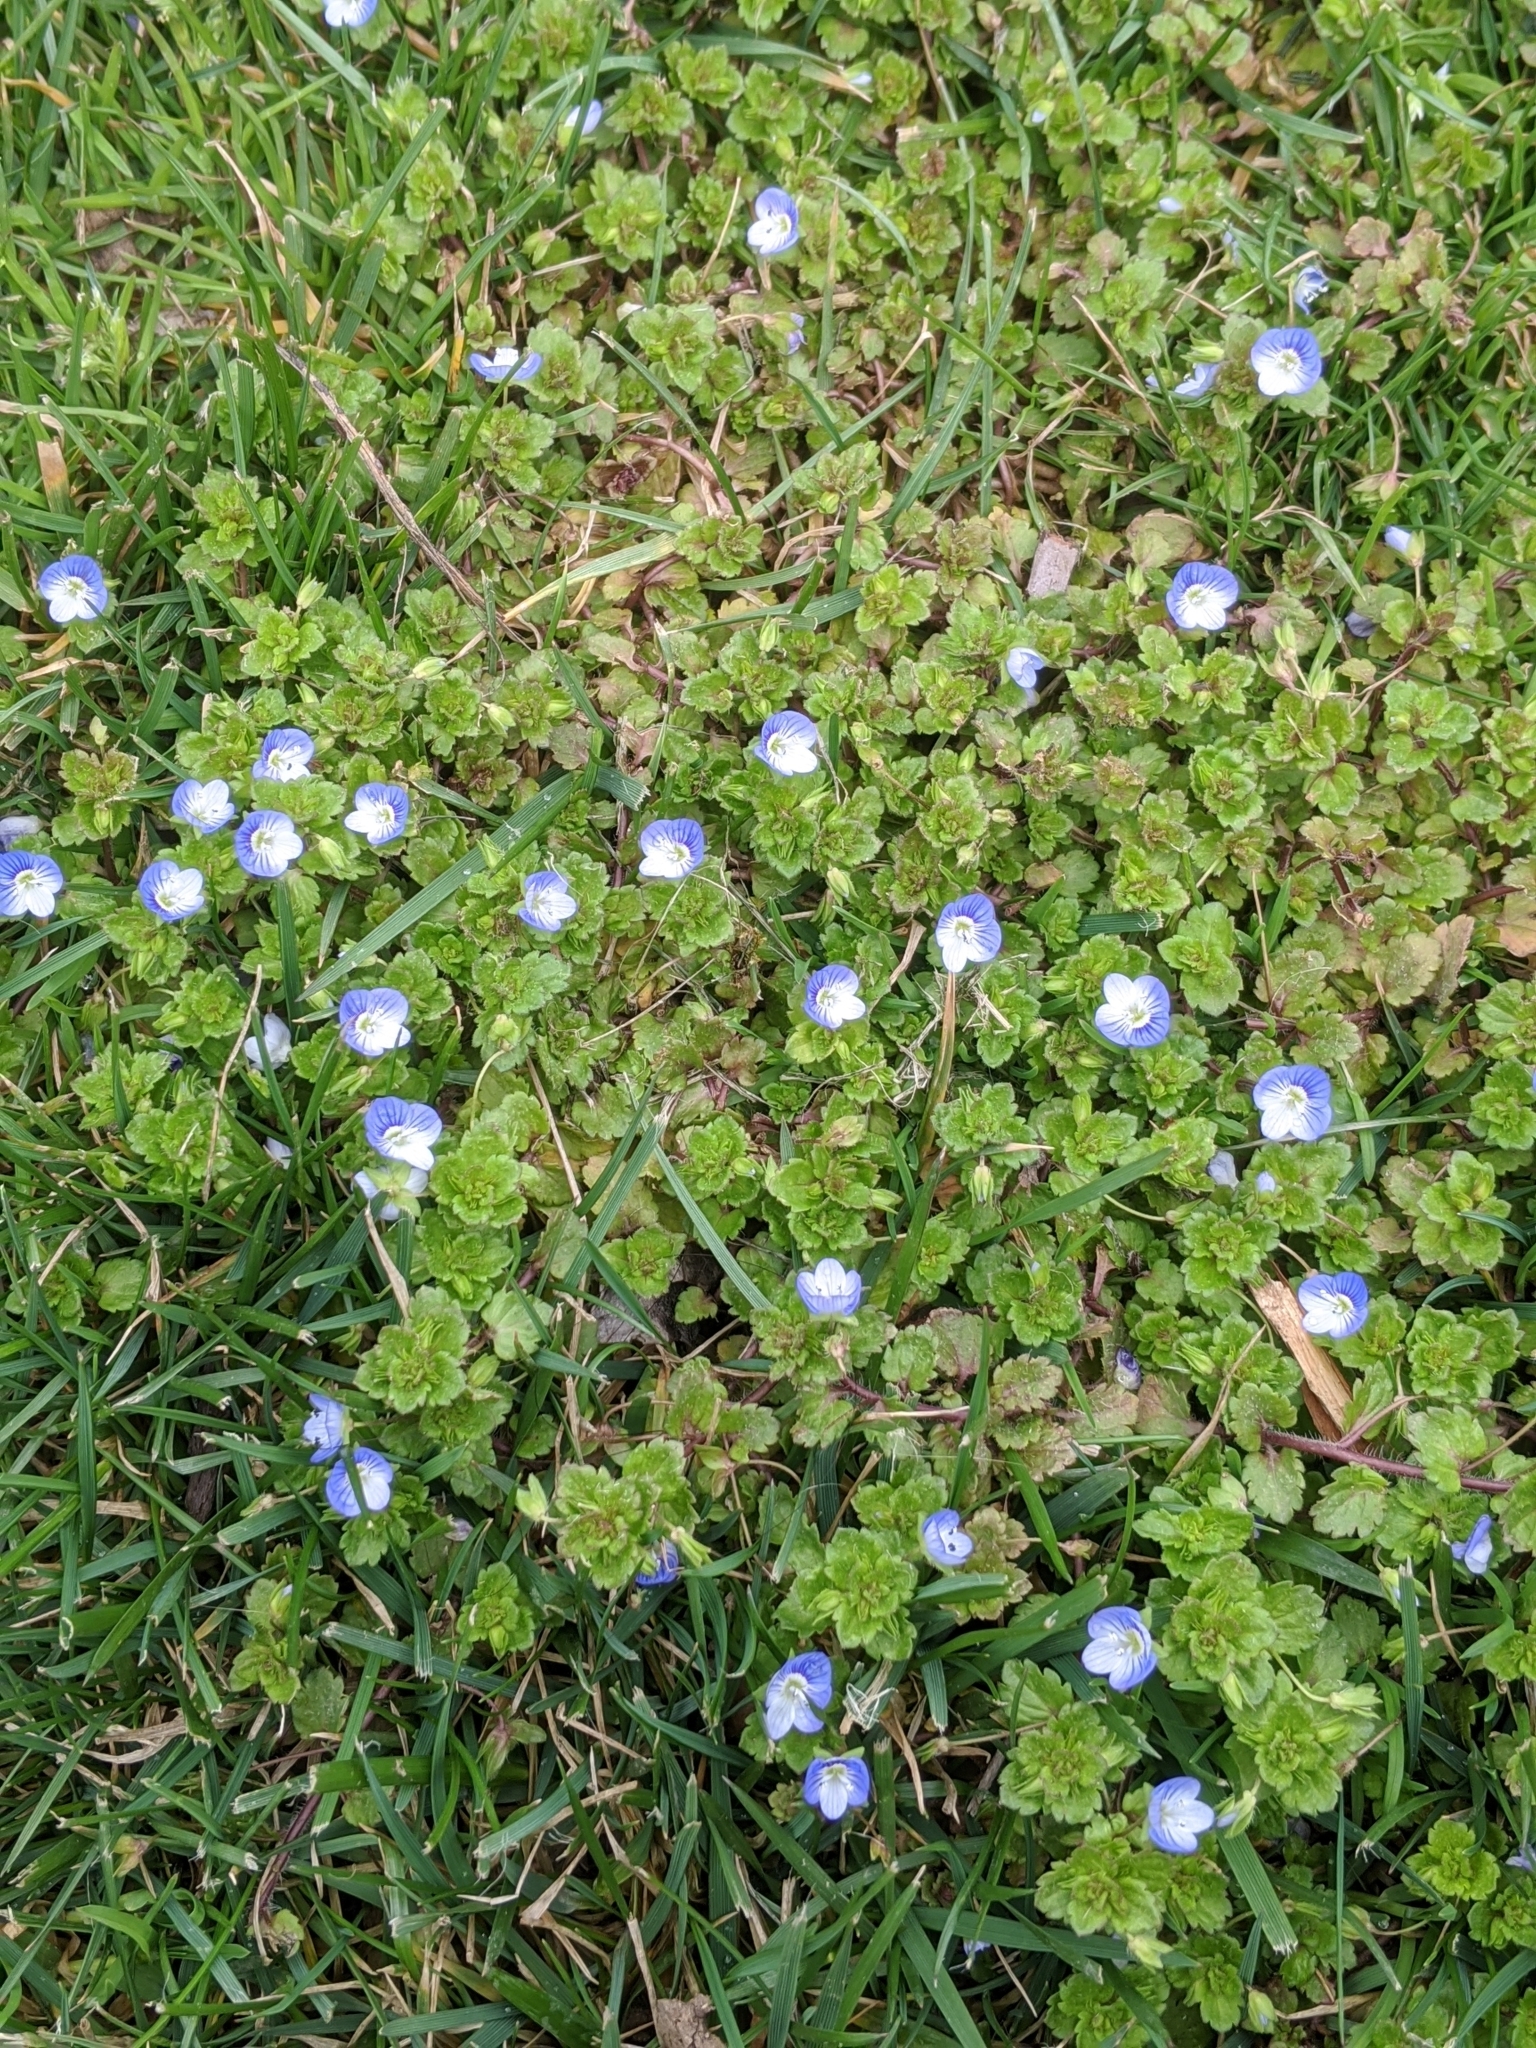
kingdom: Plantae
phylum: Tracheophyta
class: Magnoliopsida
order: Lamiales
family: Plantaginaceae
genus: Veronica
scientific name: Veronica persica
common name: Common field-speedwell
